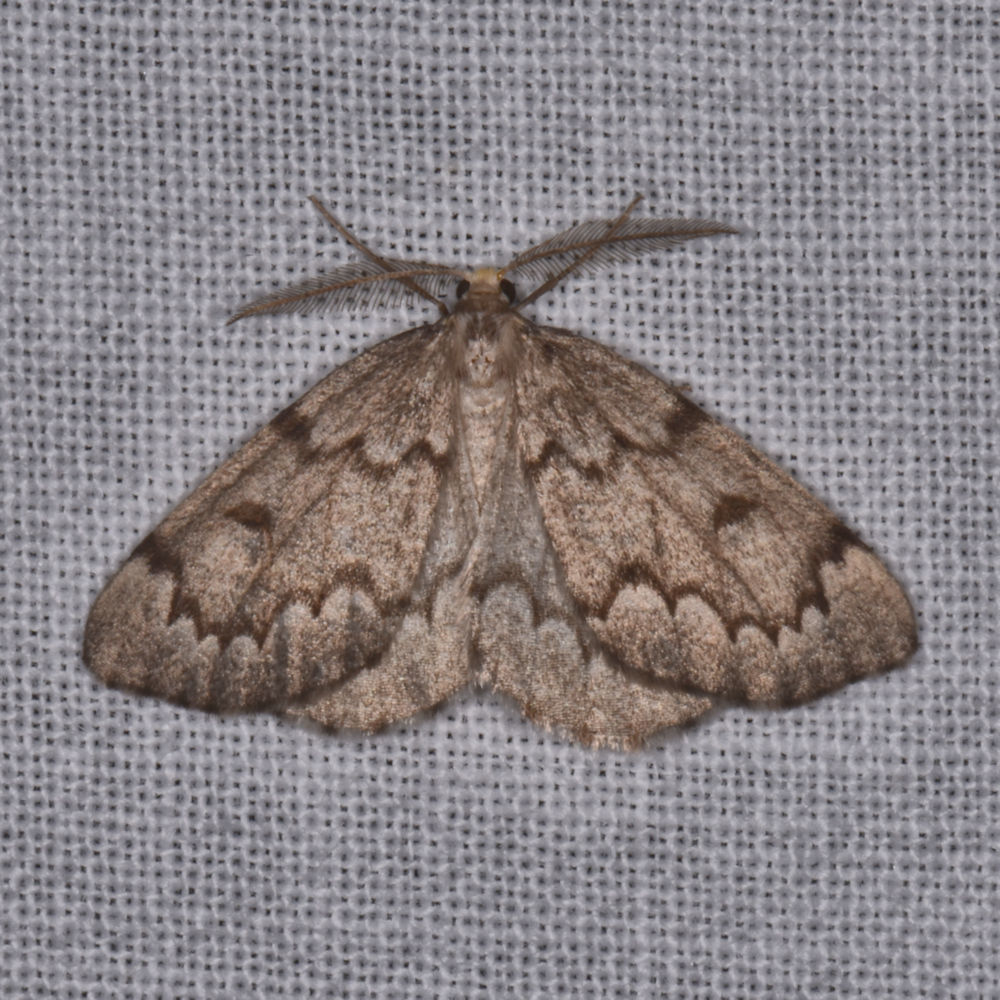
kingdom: Animalia
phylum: Arthropoda
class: Insecta
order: Lepidoptera
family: Geometridae
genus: Nepytia
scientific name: Nepytia canosaria
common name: False hemlock looper
